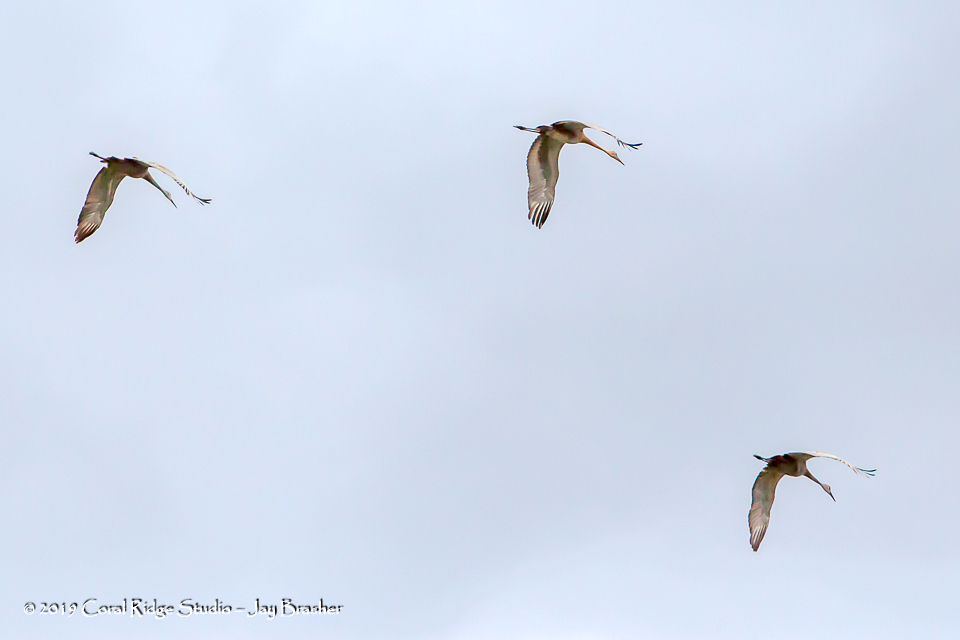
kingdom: Animalia
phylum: Chordata
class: Aves
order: Gruiformes
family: Gruidae
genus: Grus
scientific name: Grus canadensis
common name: Sandhill crane
